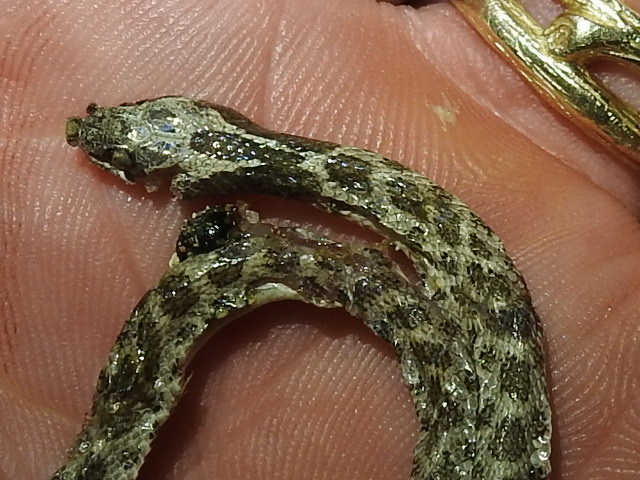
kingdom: Animalia
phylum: Chordata
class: Squamata
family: Colubridae
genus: Hypsiglena
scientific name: Hypsiglena jani
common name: Chihuahuan nightsnake
